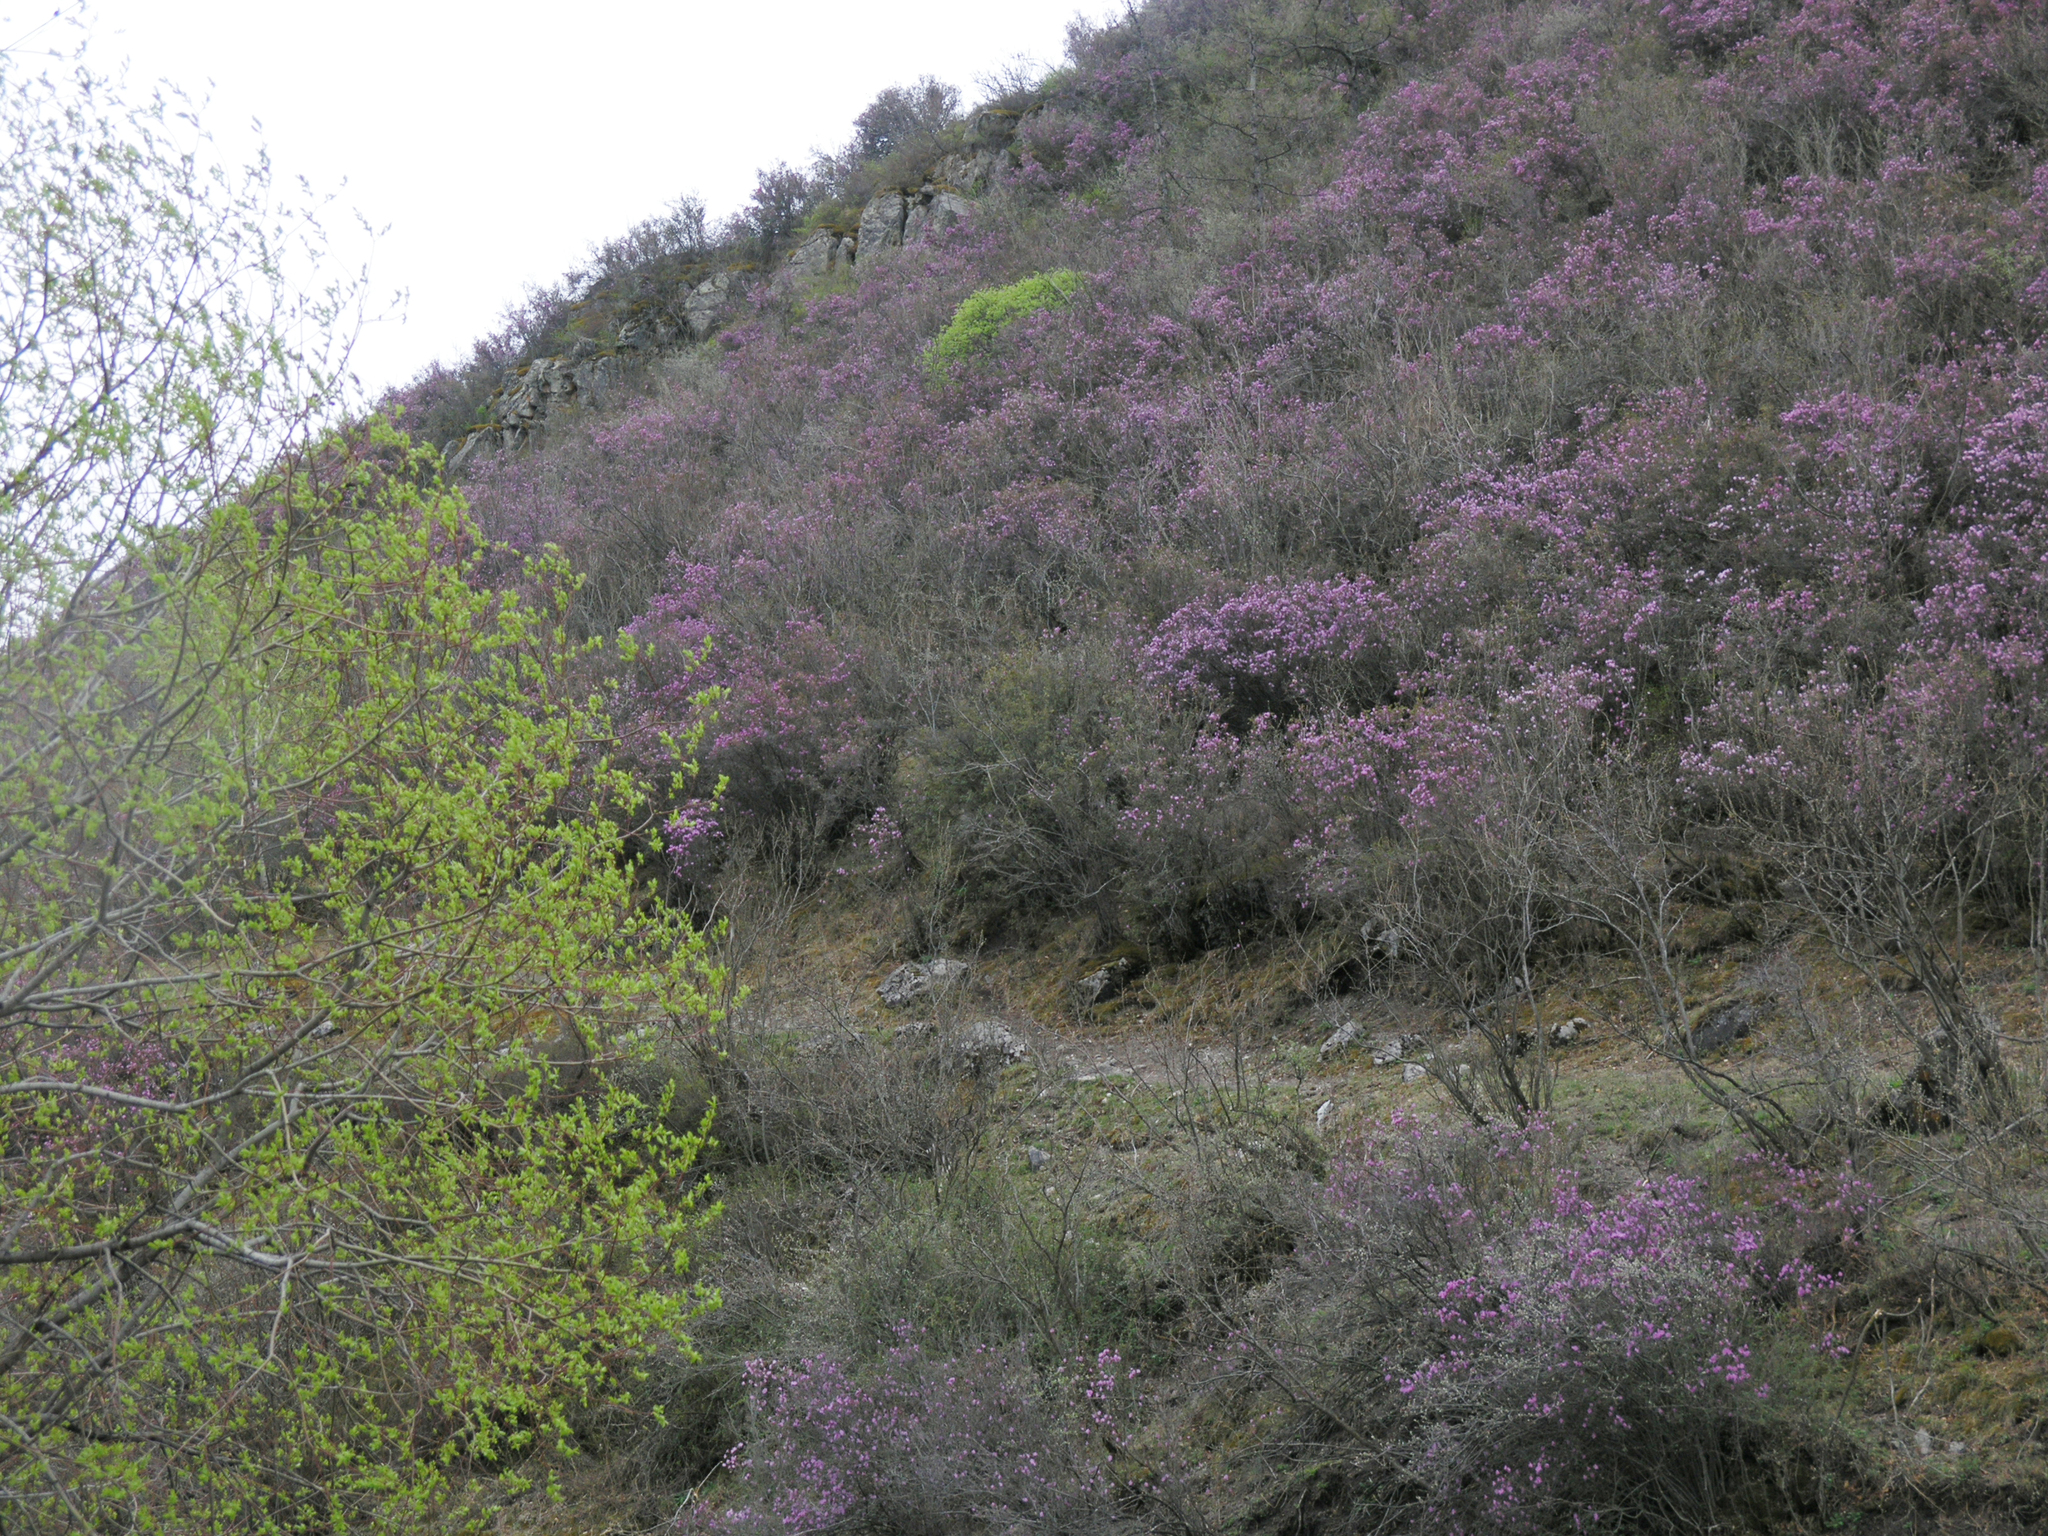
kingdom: Plantae
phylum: Tracheophyta
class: Magnoliopsida
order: Ericales
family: Ericaceae
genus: Rhododendron
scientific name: Rhododendron dauricum
